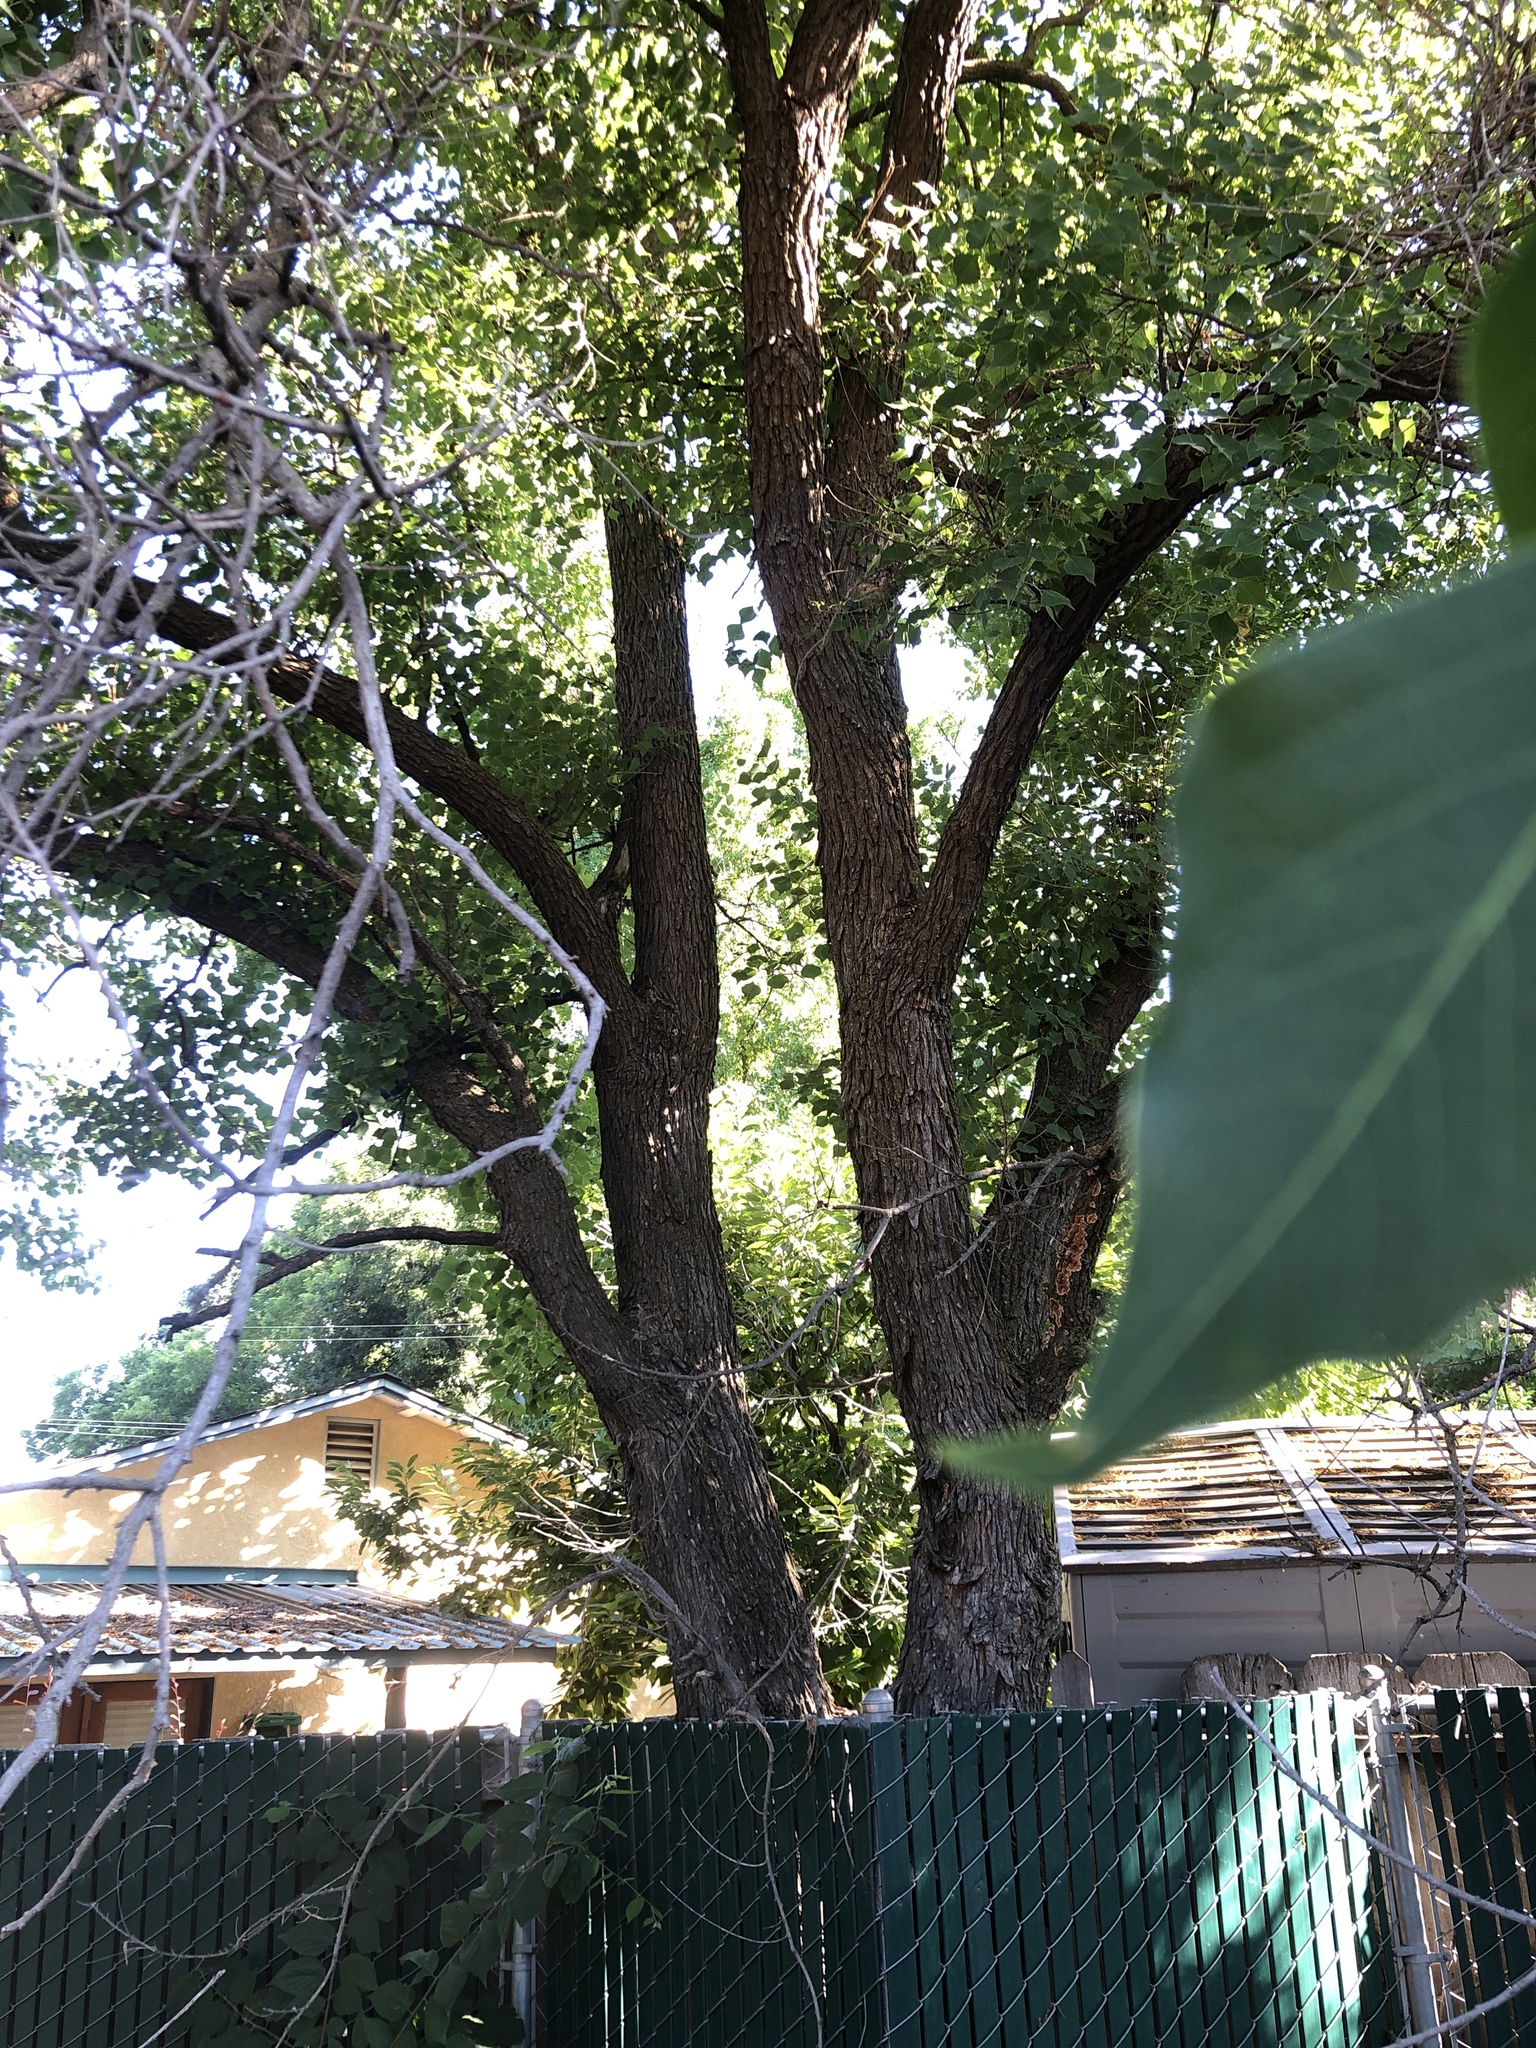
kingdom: Plantae
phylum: Tracheophyta
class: Magnoliopsida
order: Malpighiales
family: Euphorbiaceae
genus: Triadica
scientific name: Triadica sebifera
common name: Chinese tallow
